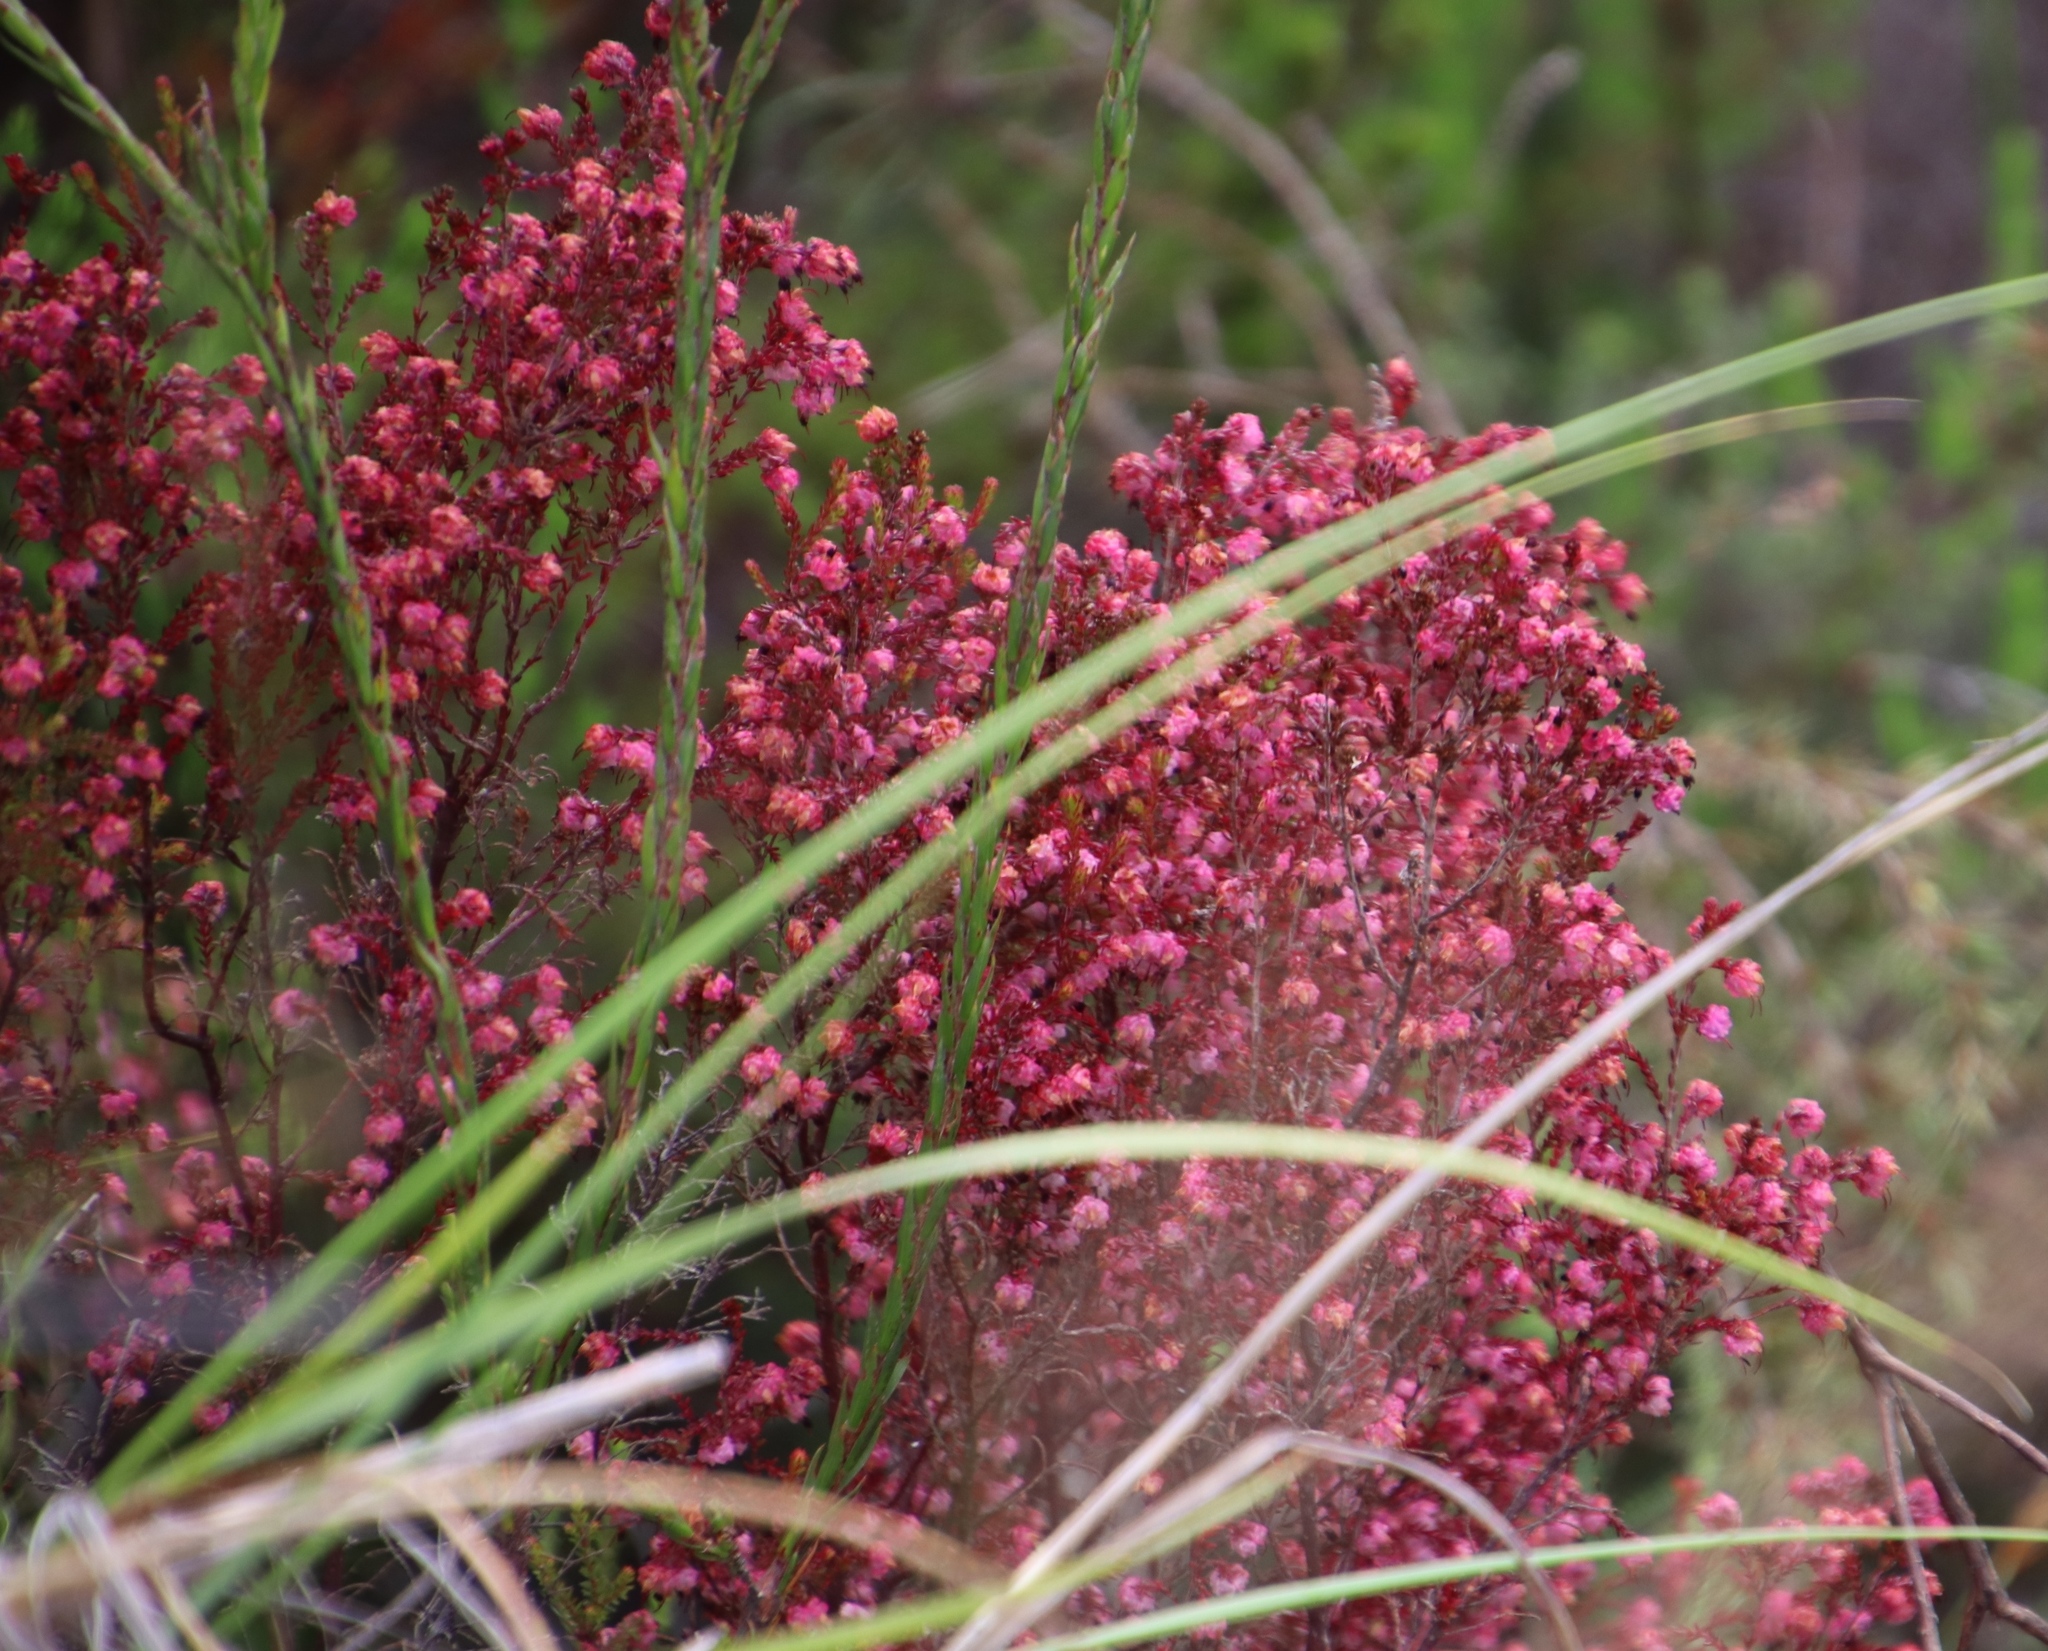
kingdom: Plantae
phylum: Tracheophyta
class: Magnoliopsida
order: Ericales
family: Ericaceae
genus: Erica
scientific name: Erica spumosa
